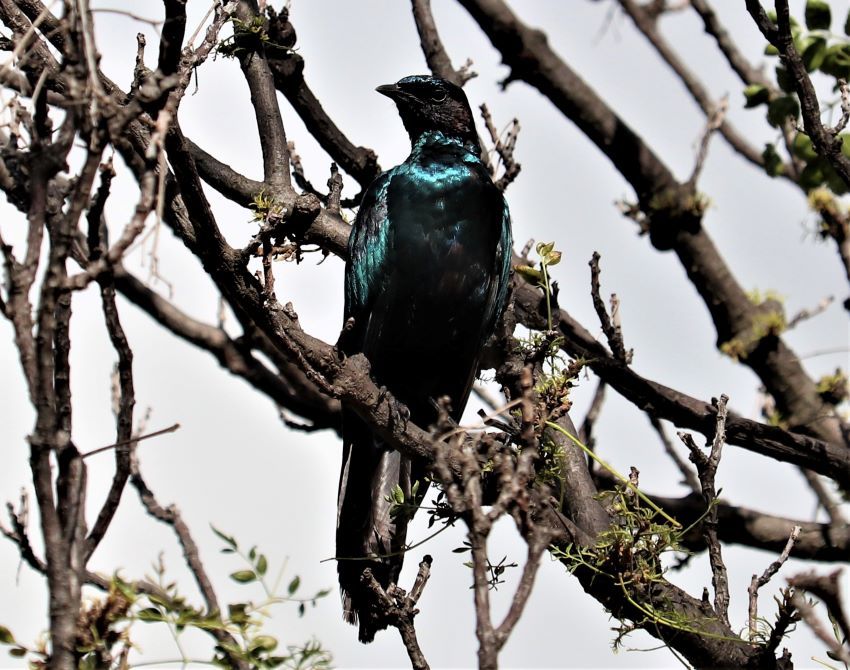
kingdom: Animalia
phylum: Chordata
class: Aves
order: Passeriformes
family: Sturnidae
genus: Lamprotornis
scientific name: Lamprotornis australis
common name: Burchell's starling
